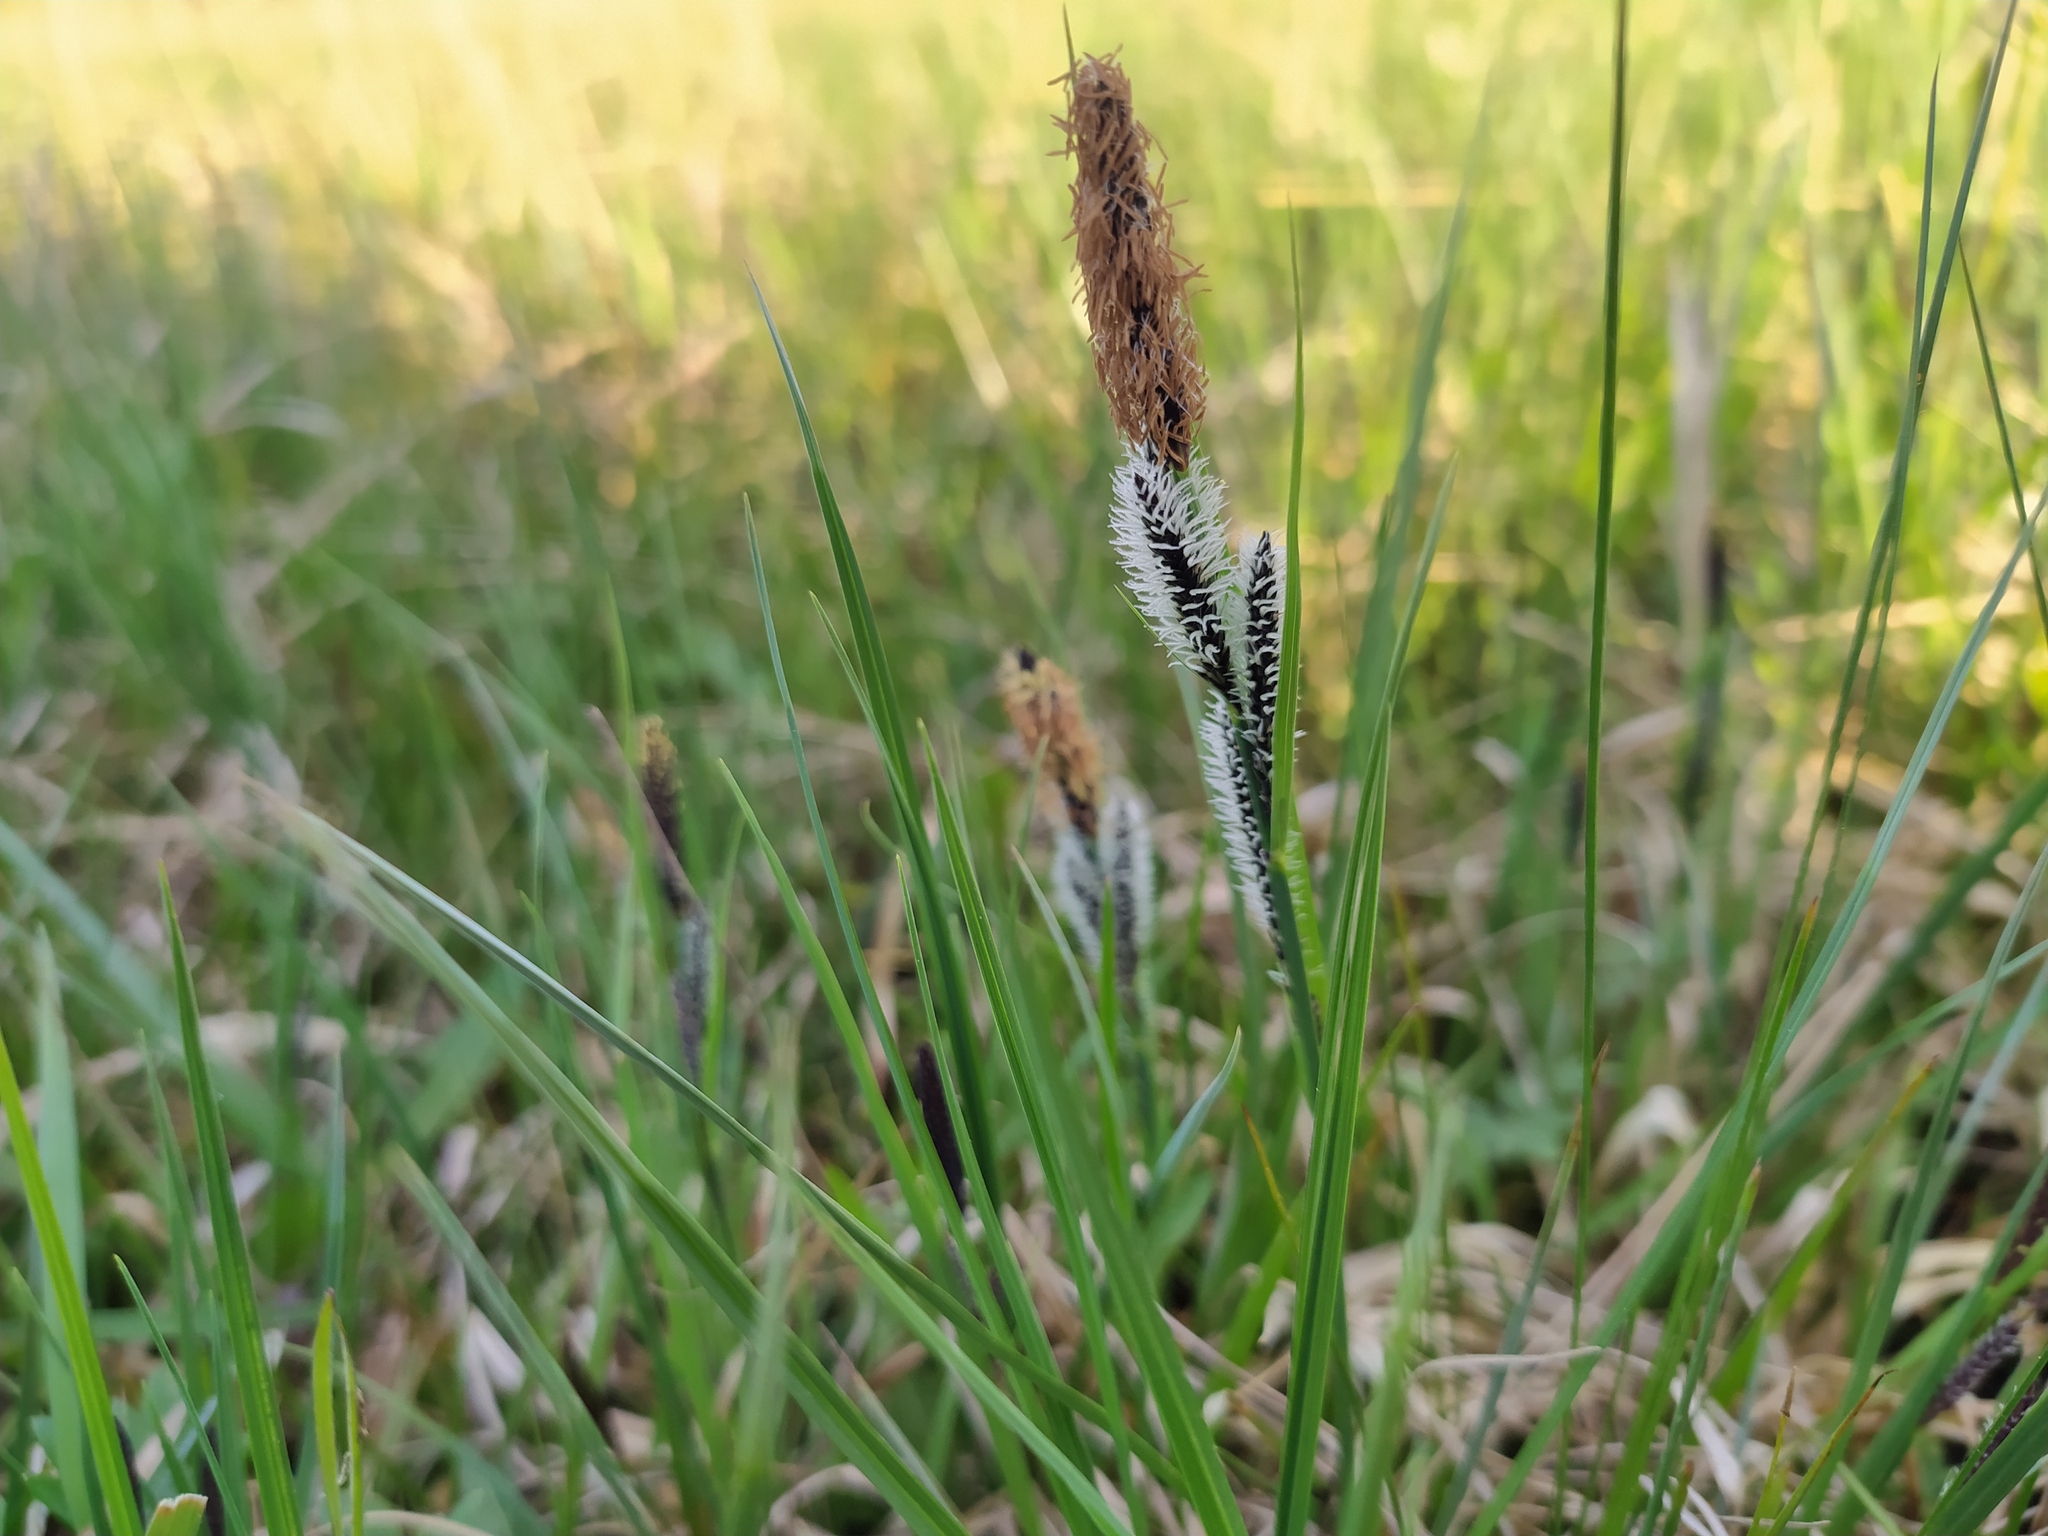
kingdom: Plantae
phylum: Tracheophyta
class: Liliopsida
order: Poales
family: Cyperaceae
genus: Carex
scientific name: Carex nigra
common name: Common sedge
